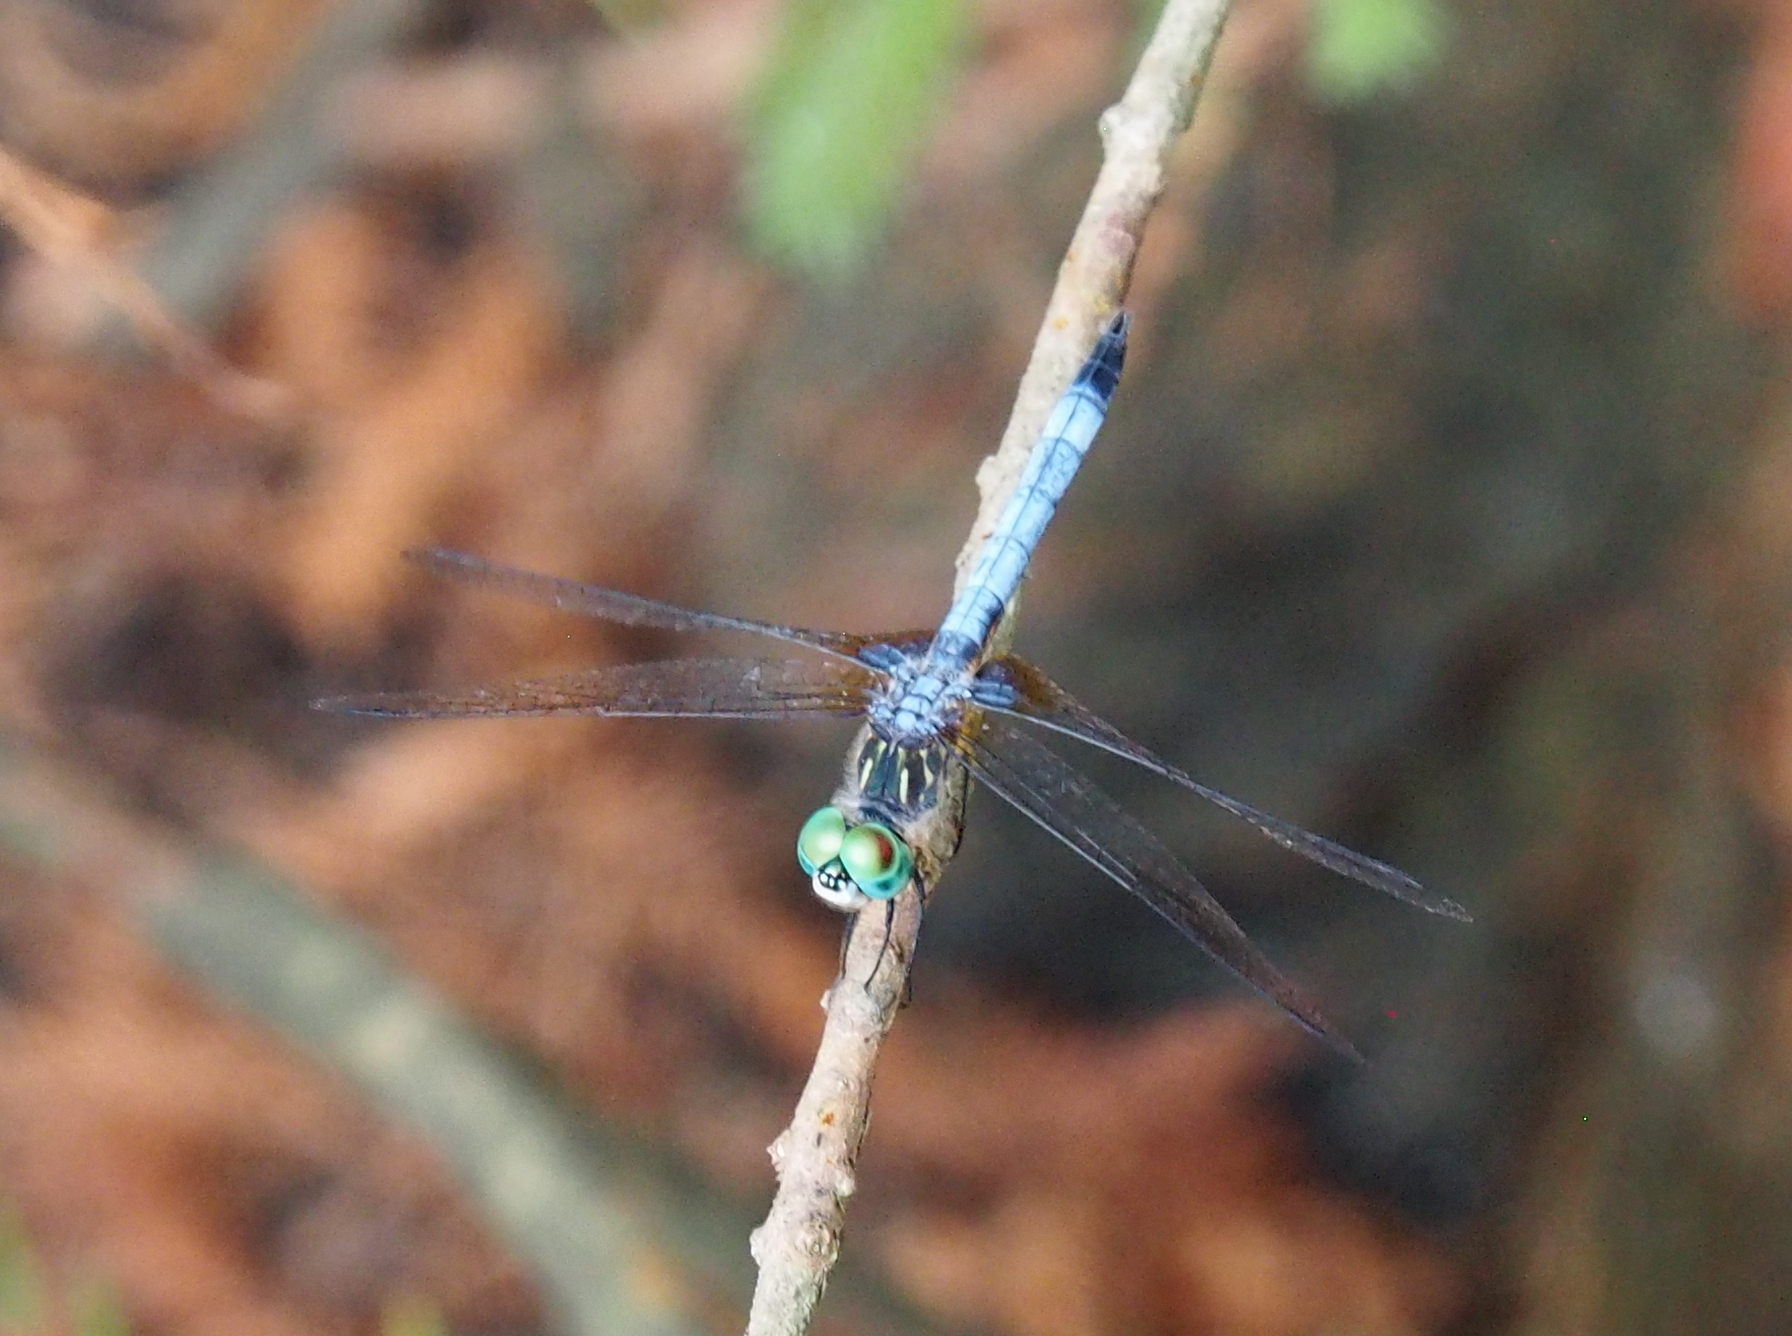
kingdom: Animalia
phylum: Arthropoda
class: Insecta
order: Odonata
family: Libellulidae
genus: Pachydiplax
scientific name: Pachydiplax longipennis
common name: Blue dasher
